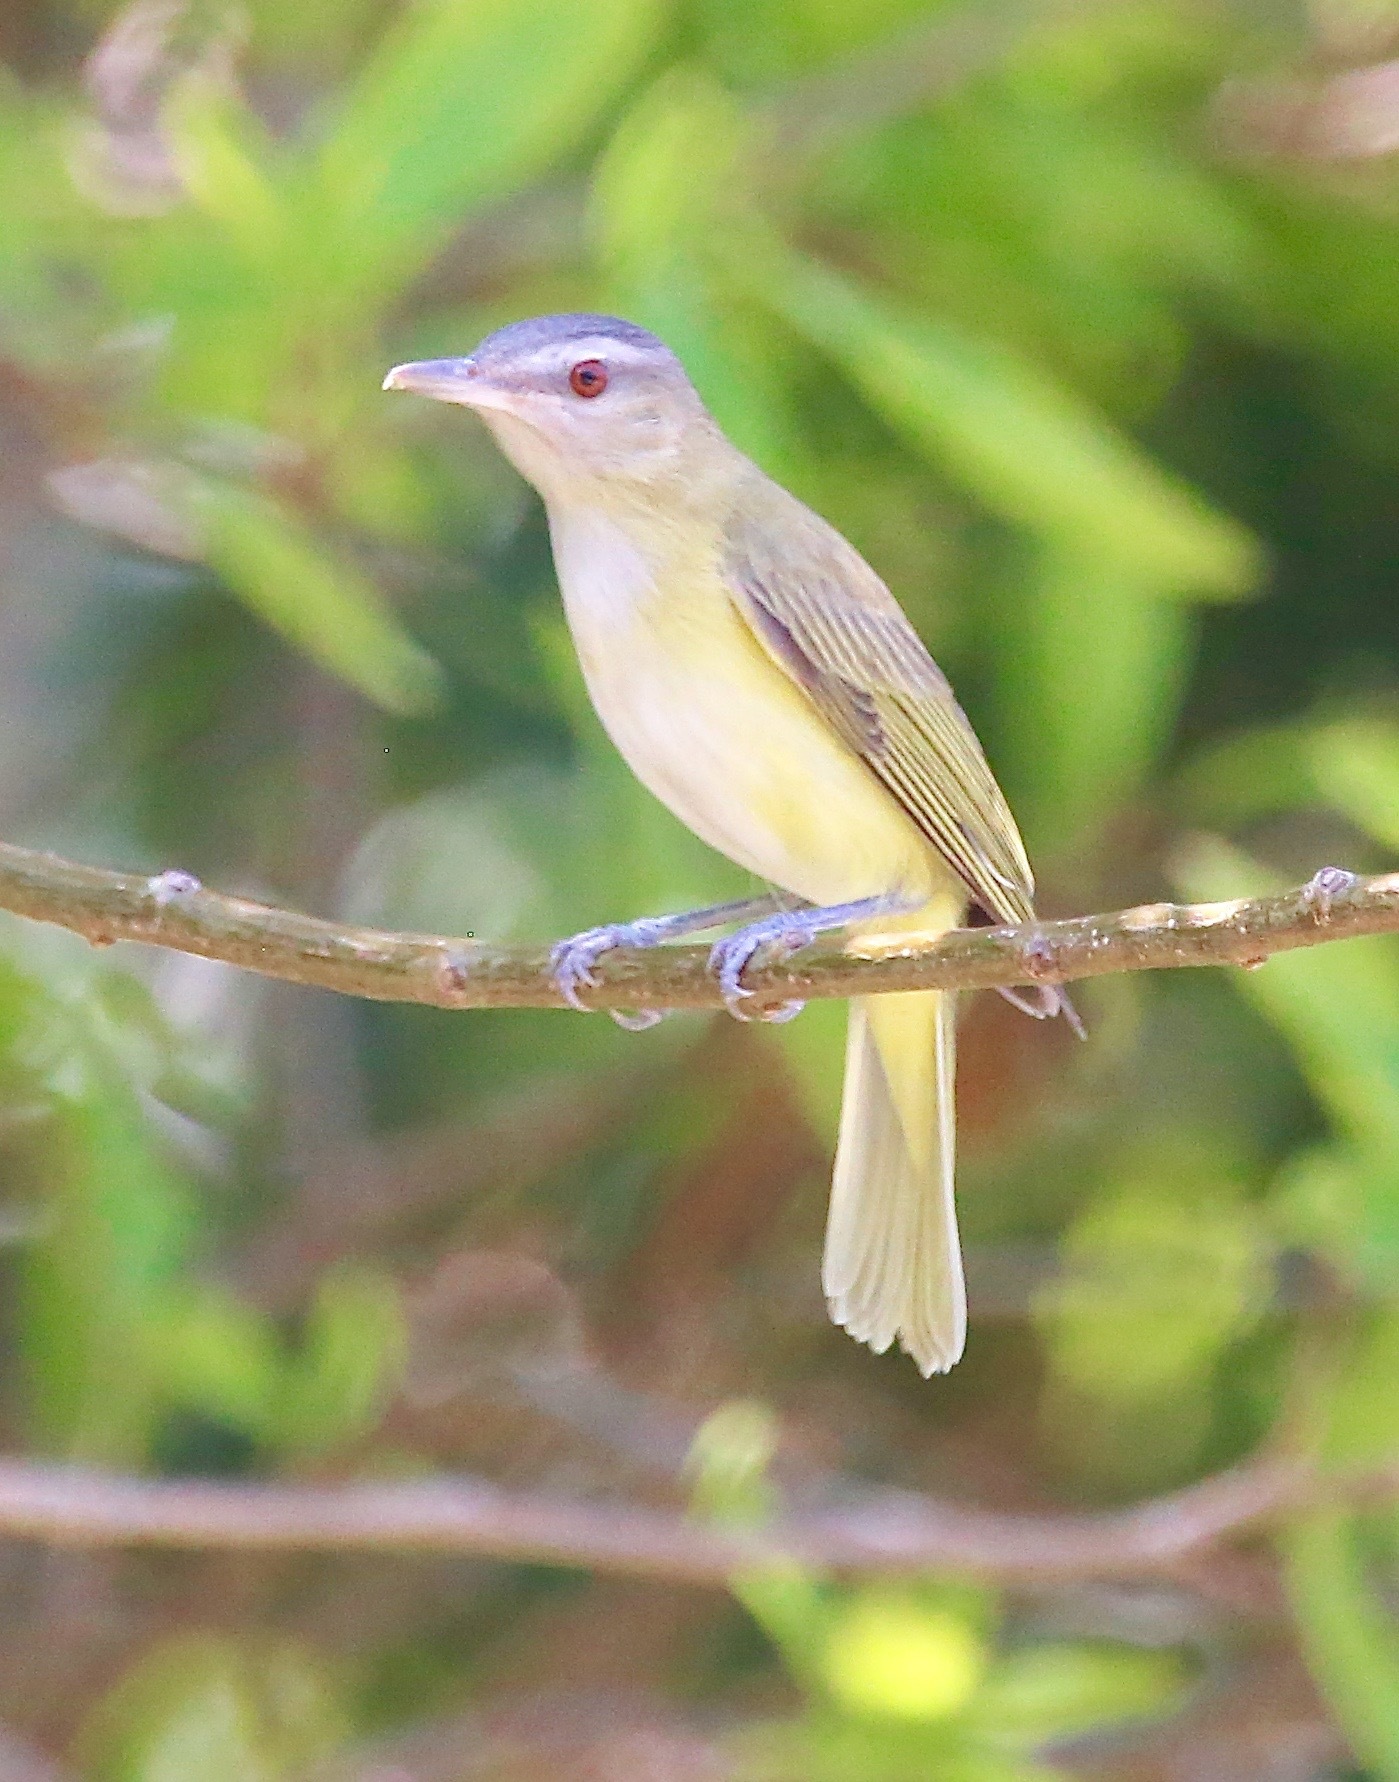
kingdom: Animalia
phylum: Chordata
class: Aves
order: Passeriformes
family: Vireonidae
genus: Vireo
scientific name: Vireo flavoviridis
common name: Yellow-green vireo
